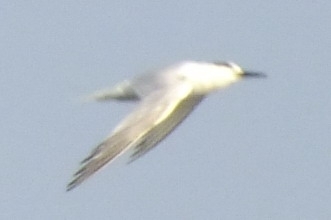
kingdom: Animalia
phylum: Chordata
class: Aves
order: Charadriiformes
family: Laridae
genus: Thalasseus
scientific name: Thalasseus sandvicensis
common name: Sandwich tern
